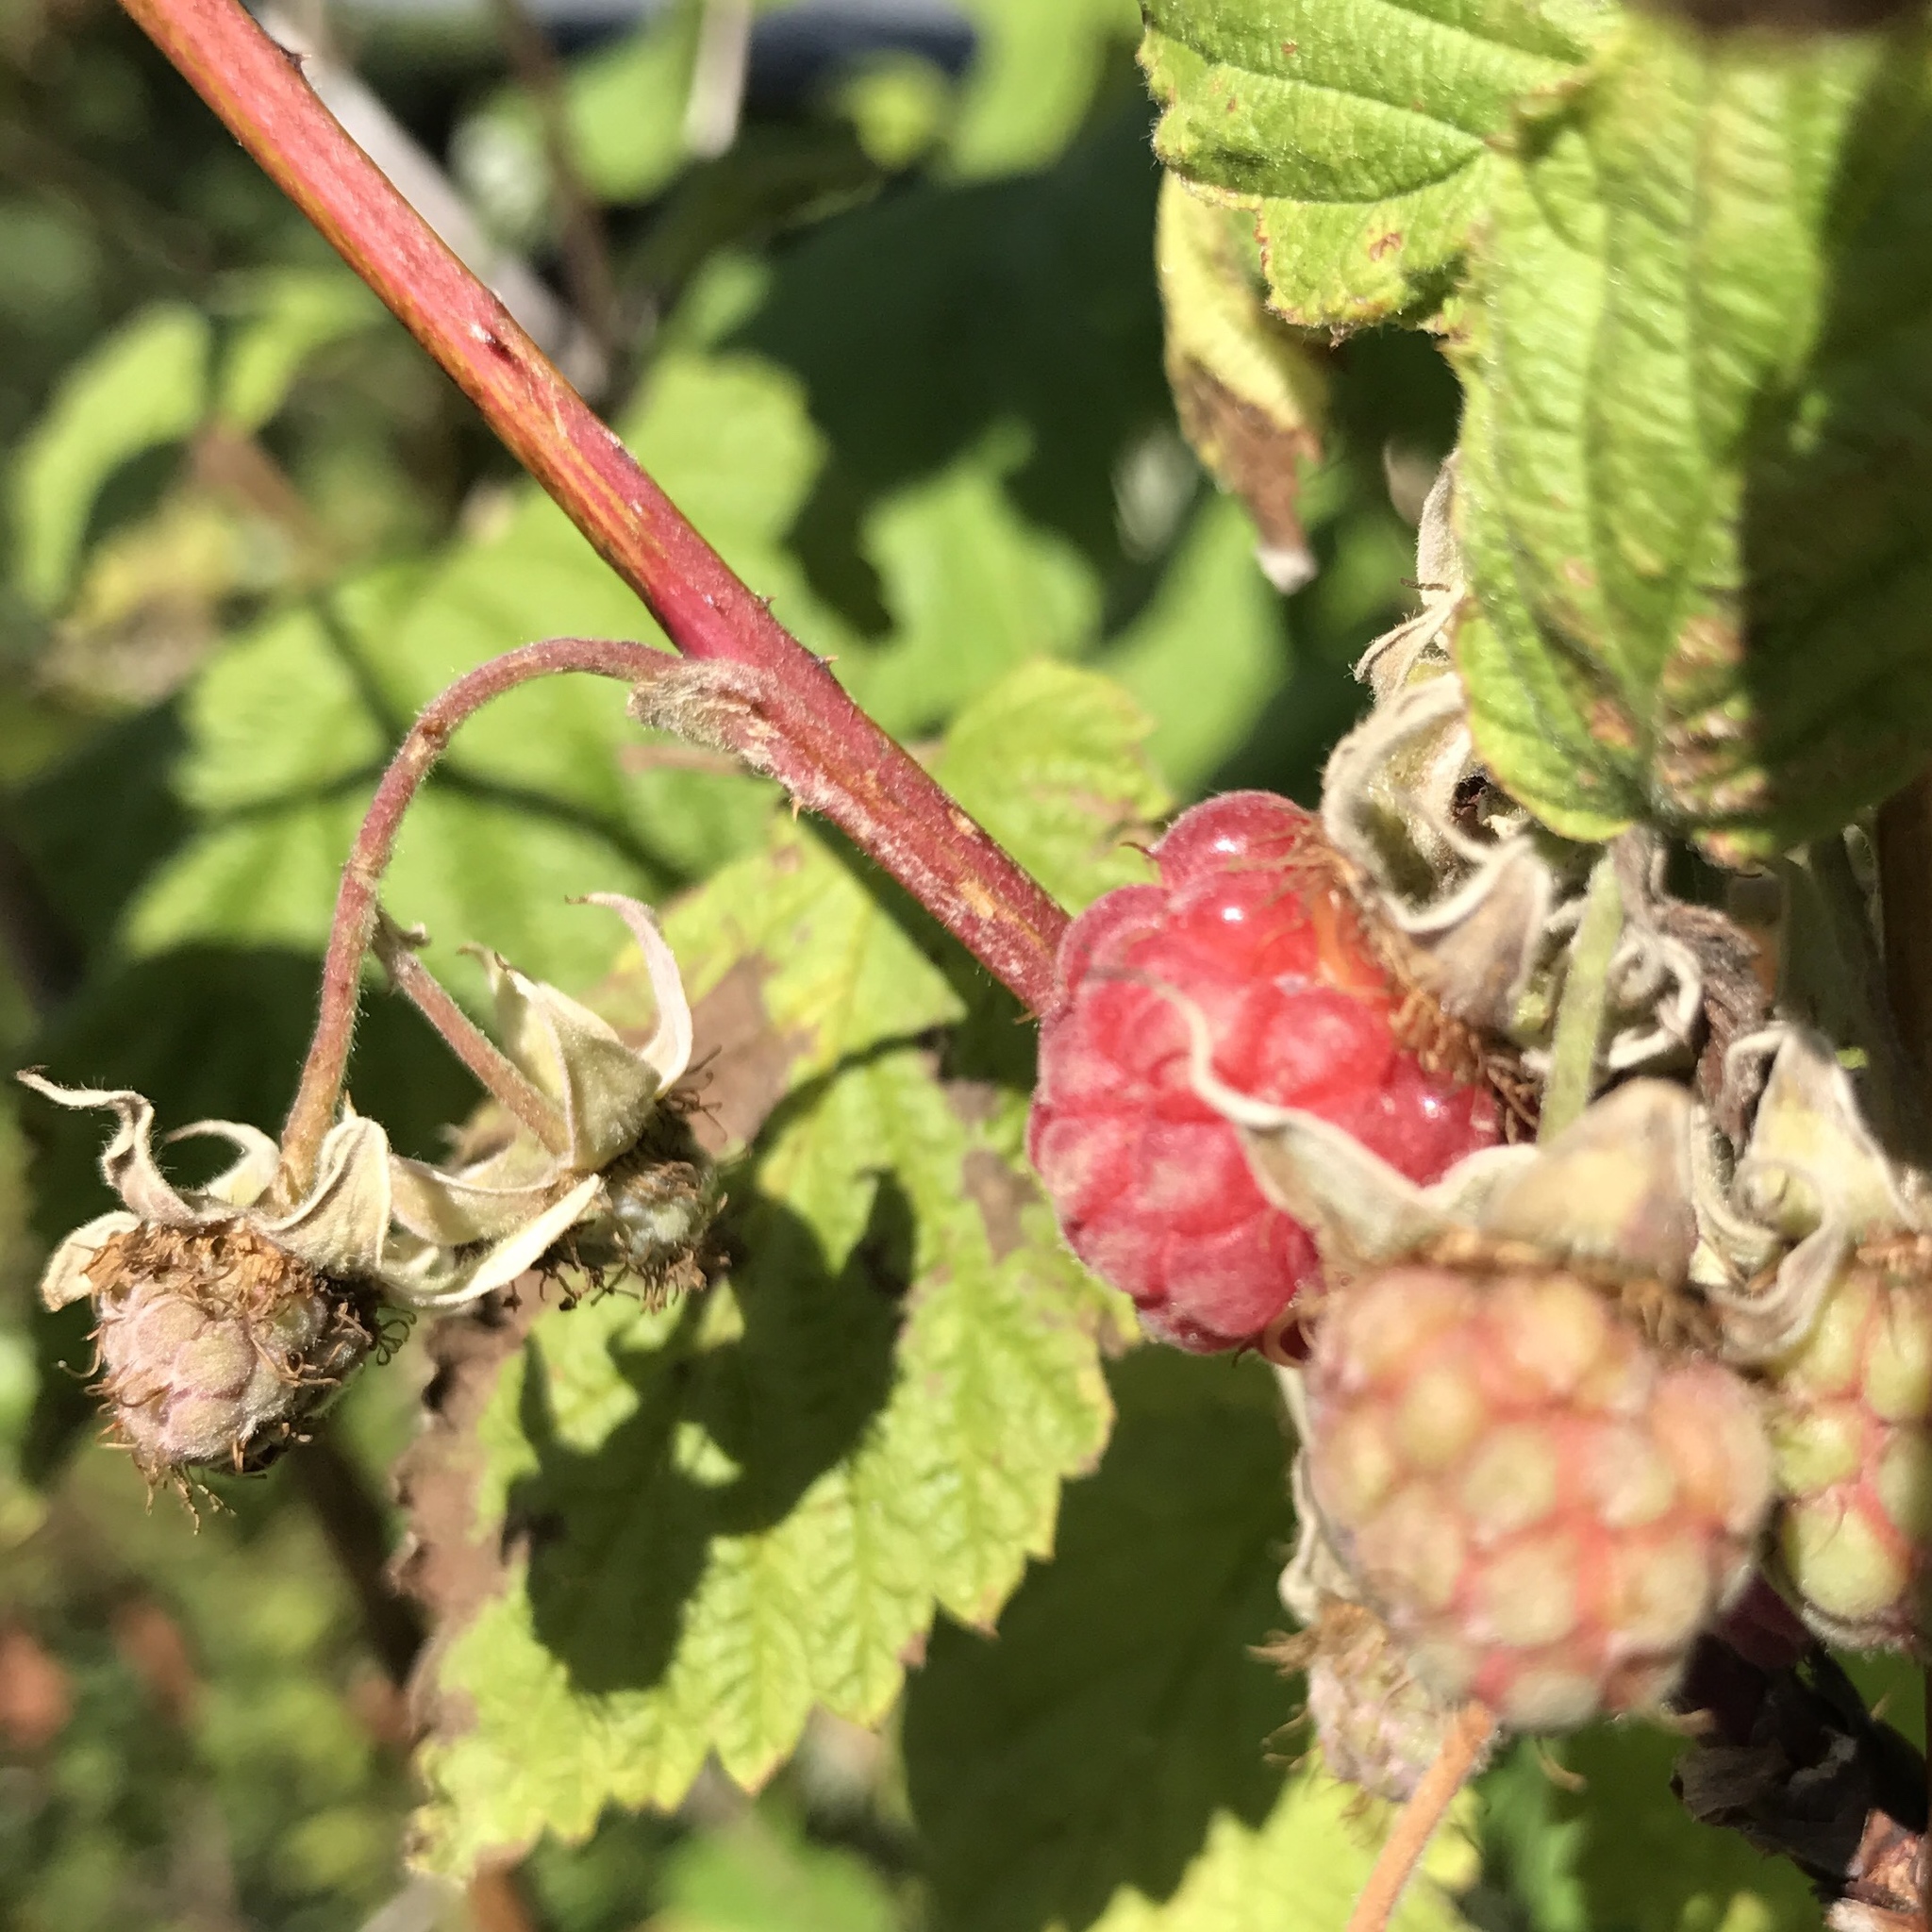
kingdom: Plantae
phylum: Tracheophyta
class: Magnoliopsida
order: Rosales
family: Rosaceae
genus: Rubus
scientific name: Rubus idaeus
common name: Raspberry
